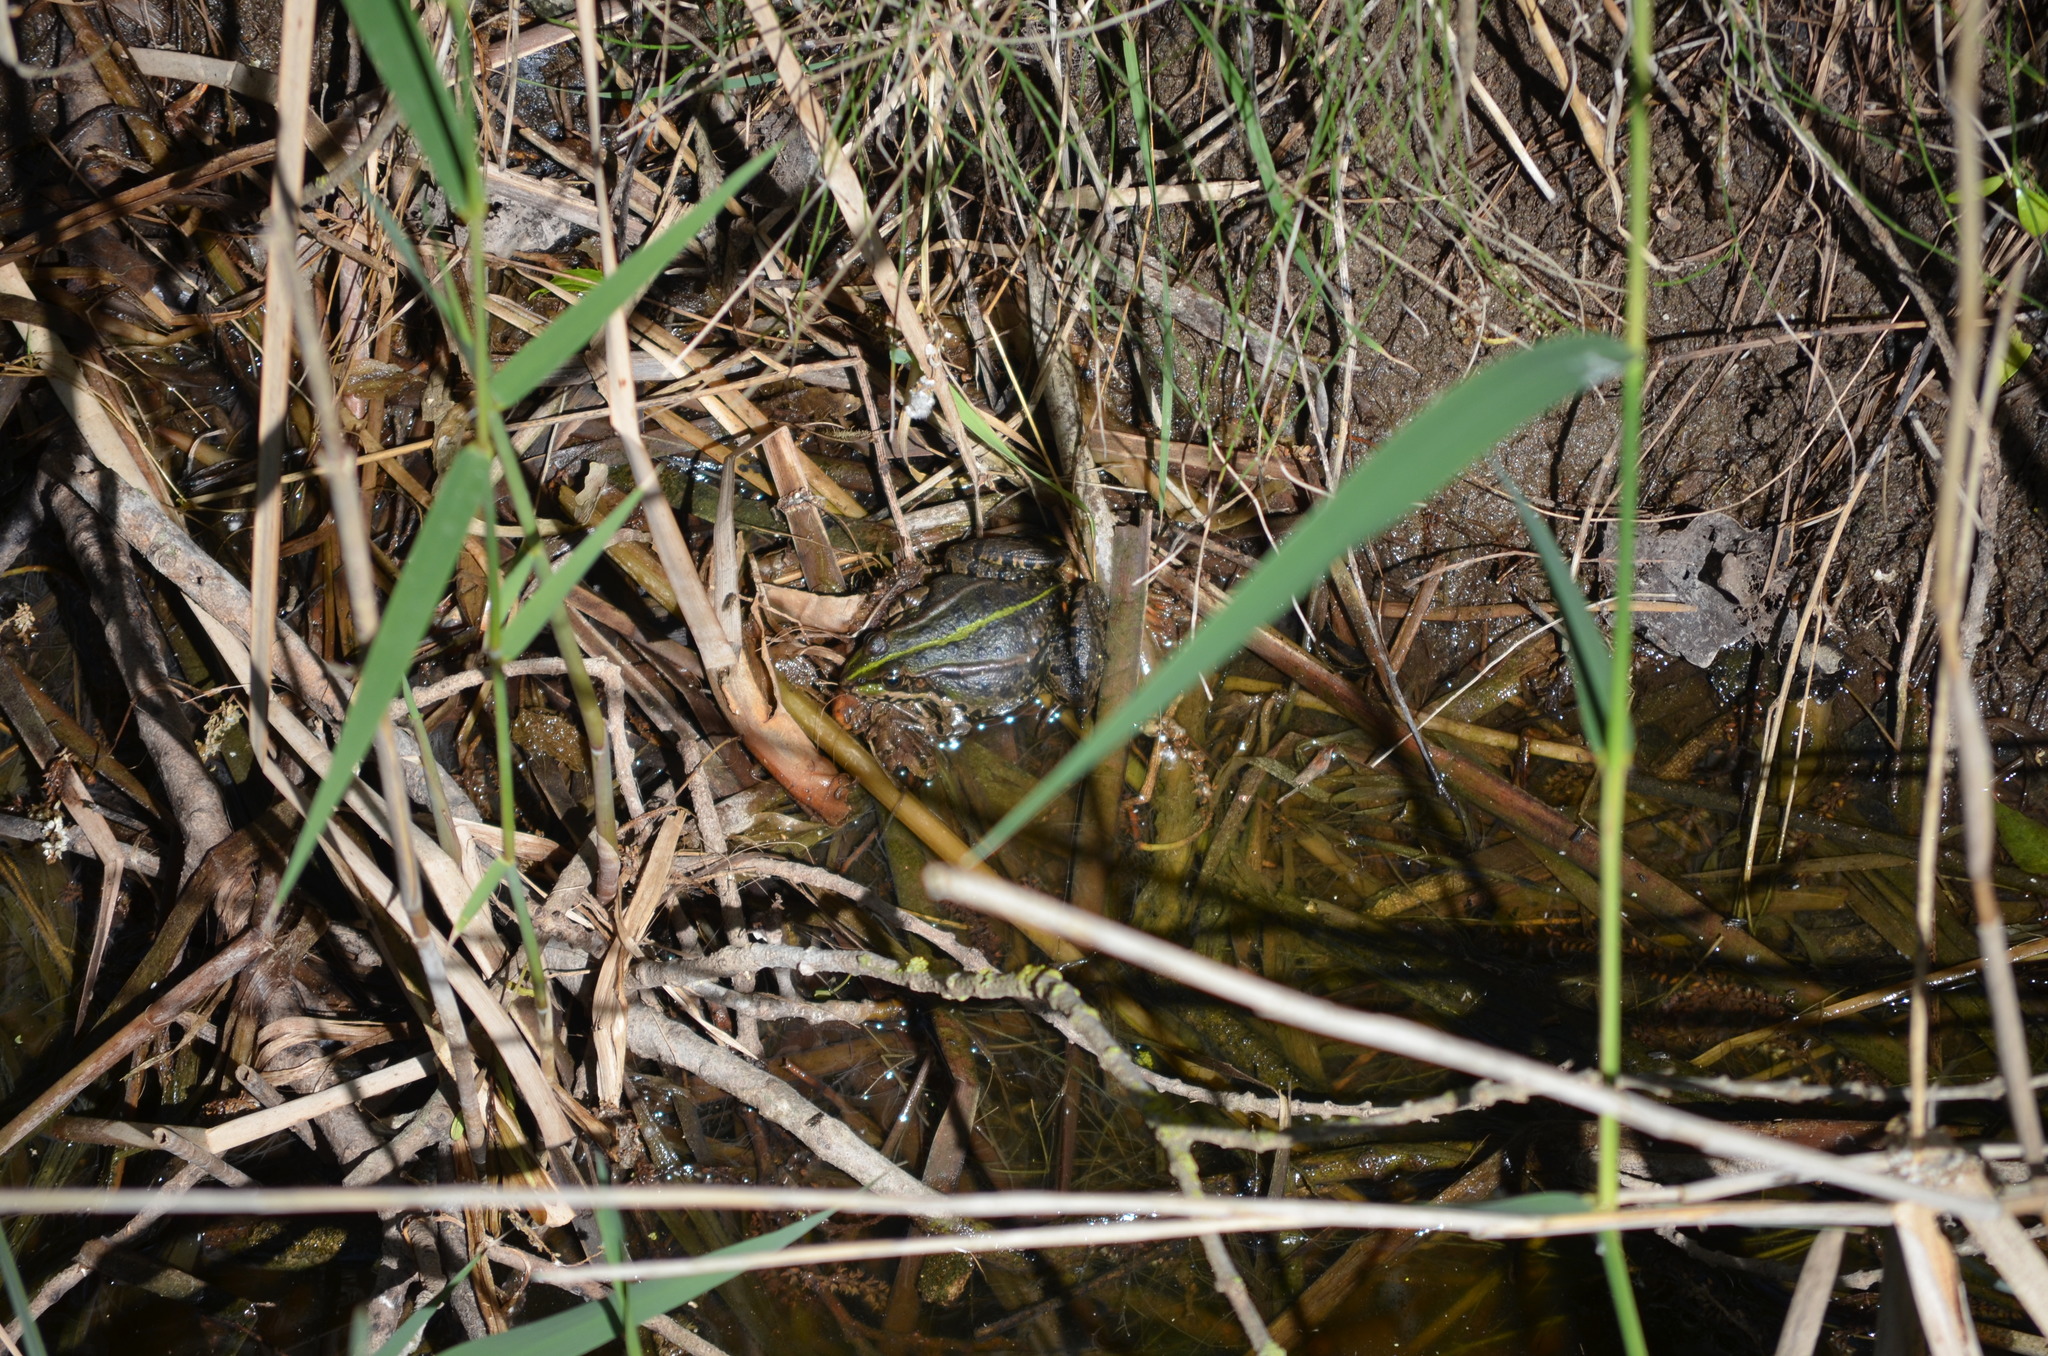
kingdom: Animalia
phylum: Chordata
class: Amphibia
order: Anura
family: Ranidae
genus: Pelophylax
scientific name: Pelophylax perezi
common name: Perez's frog
